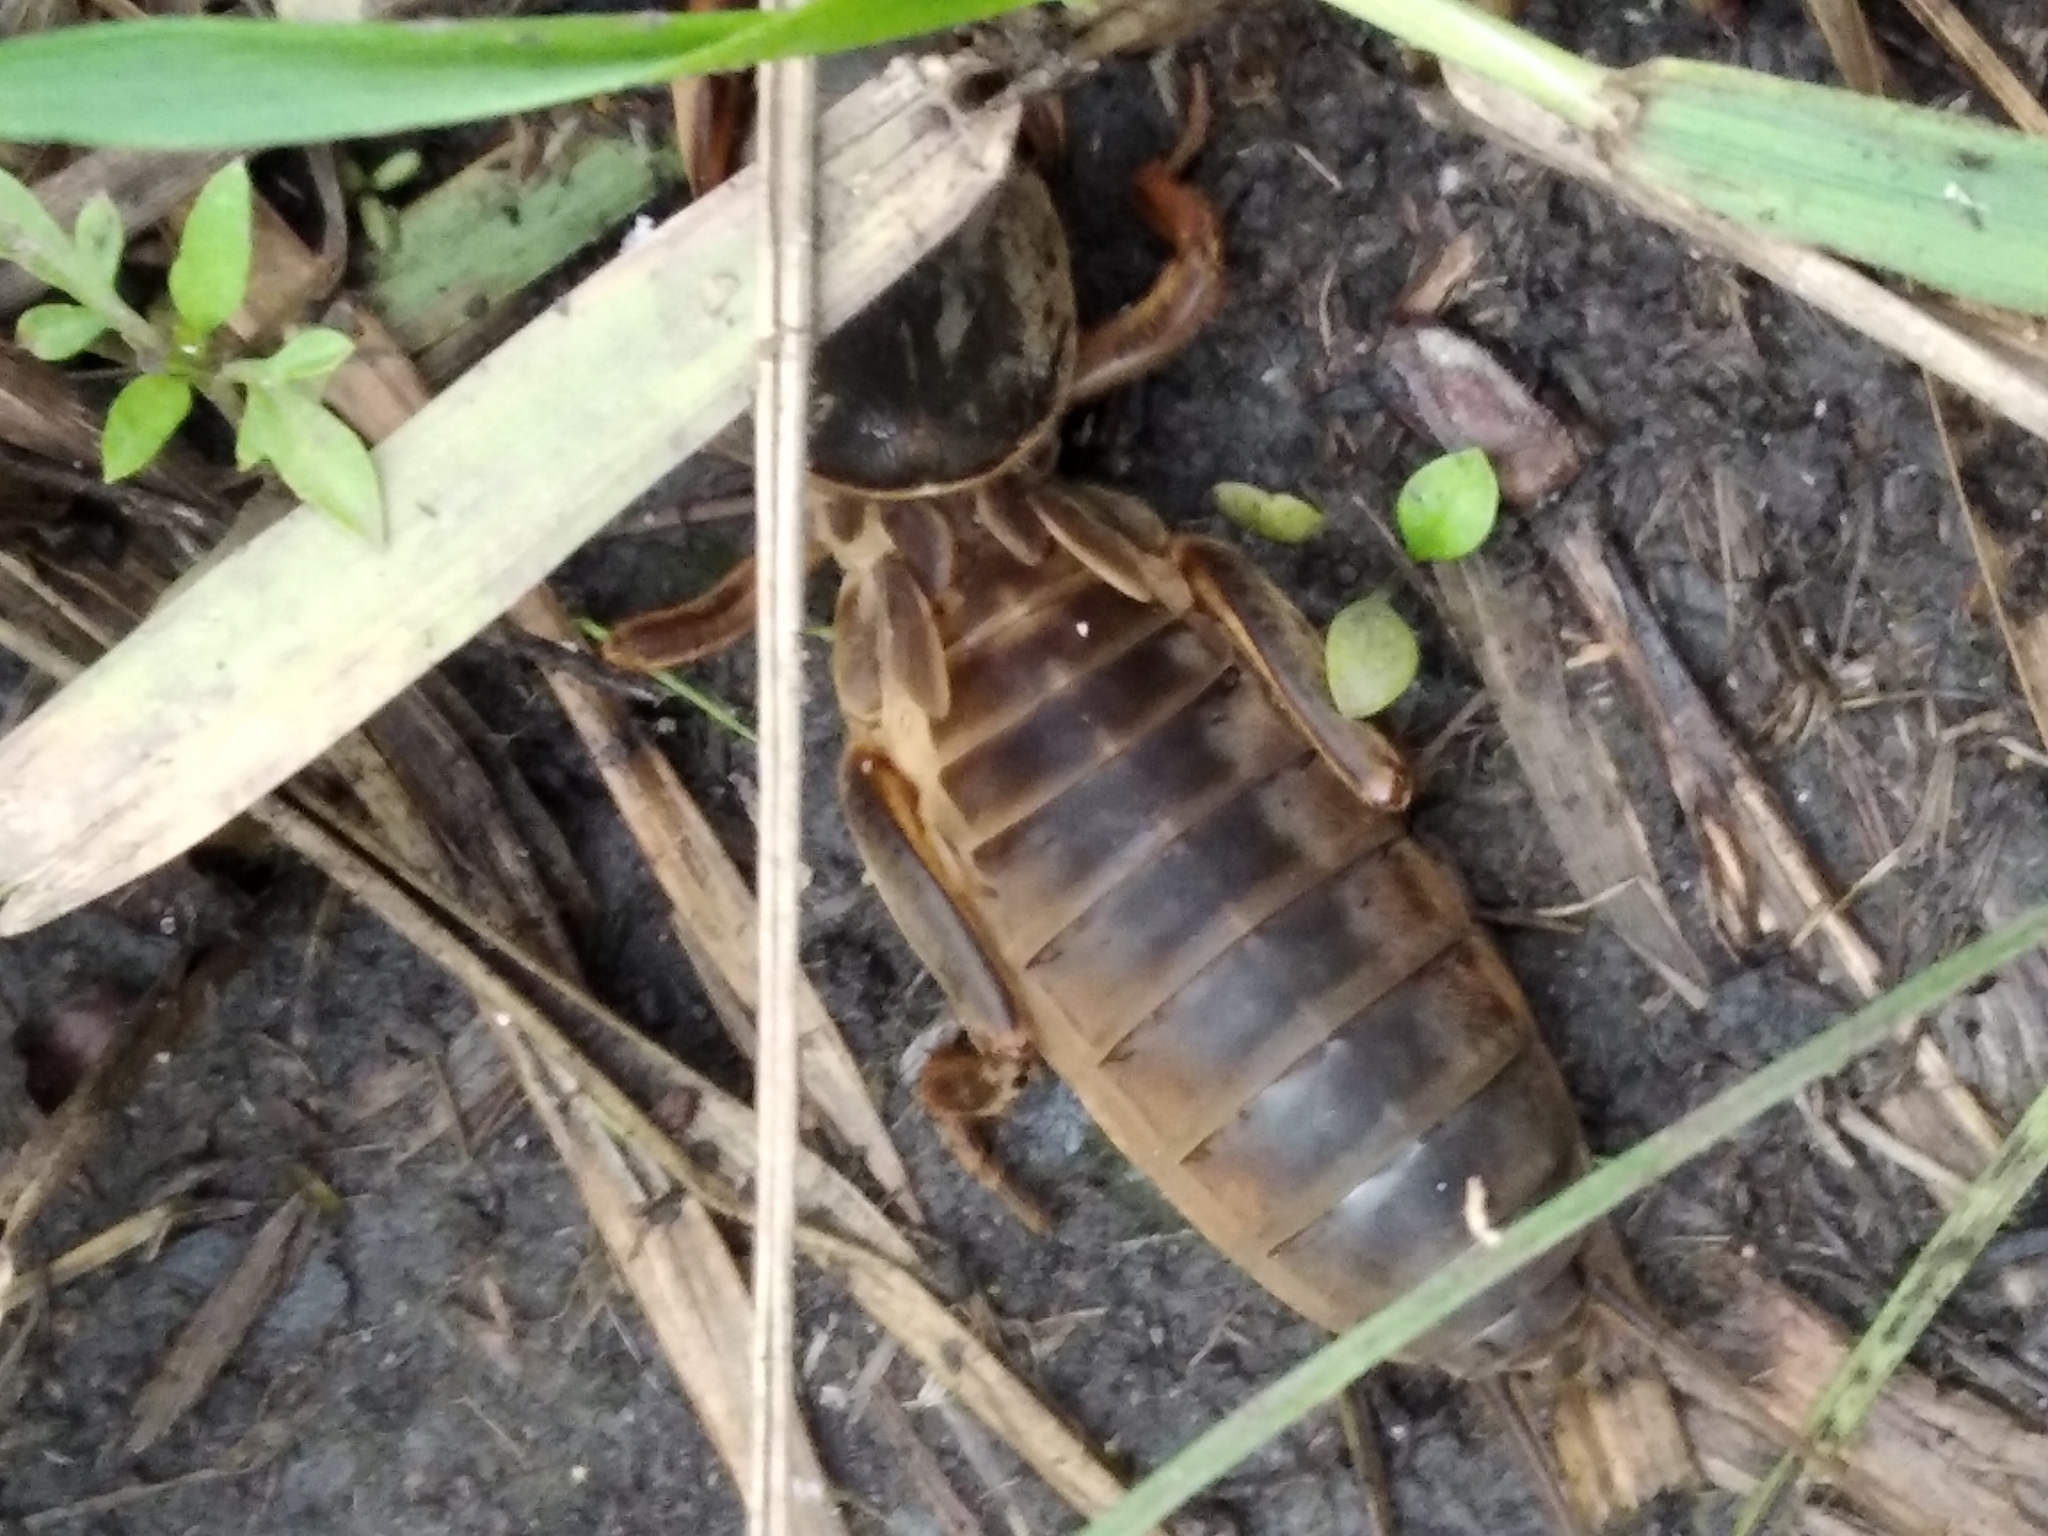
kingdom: Animalia
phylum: Arthropoda
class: Insecta
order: Orthoptera
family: Gryllotalpidae
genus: Gryllotalpa
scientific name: Gryllotalpa
